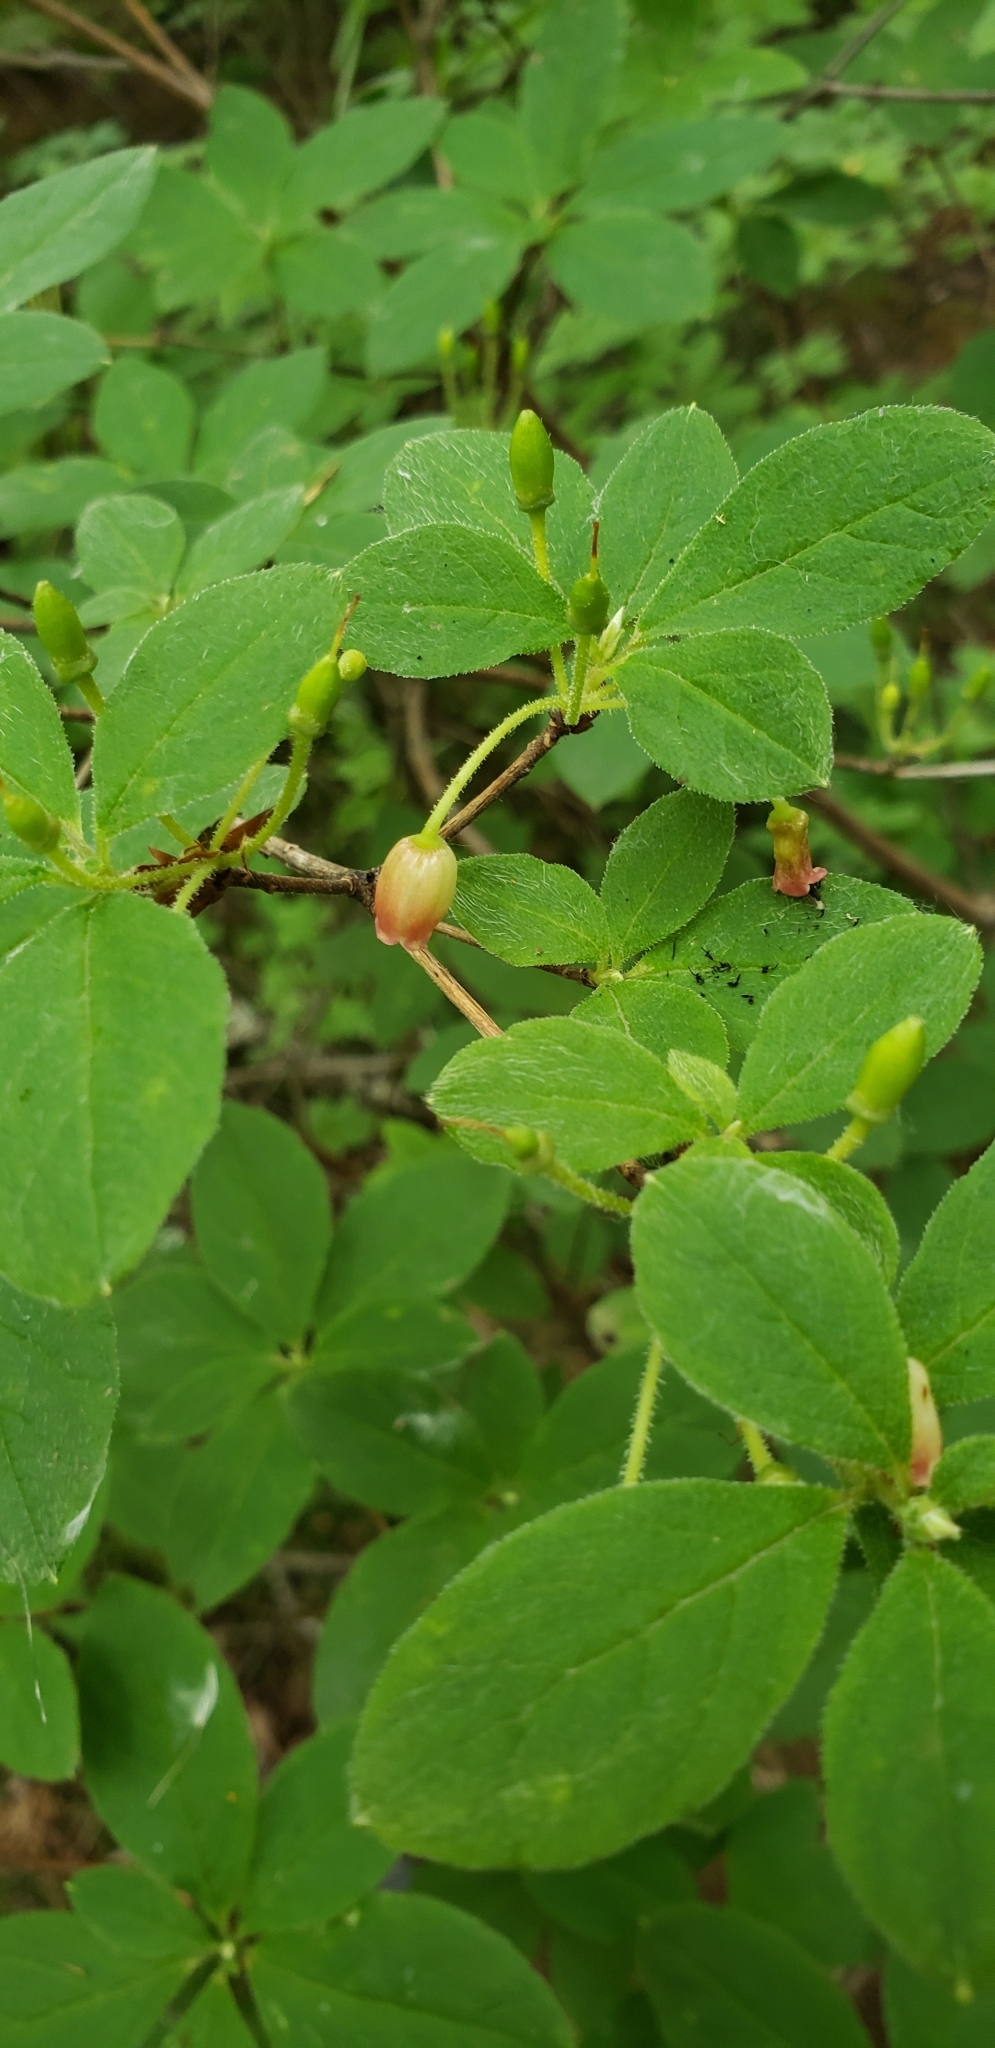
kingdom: Plantae
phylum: Tracheophyta
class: Magnoliopsida
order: Ericales
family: Ericaceae
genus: Rhododendron
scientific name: Rhododendron menziesii
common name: Pacific menziesia
